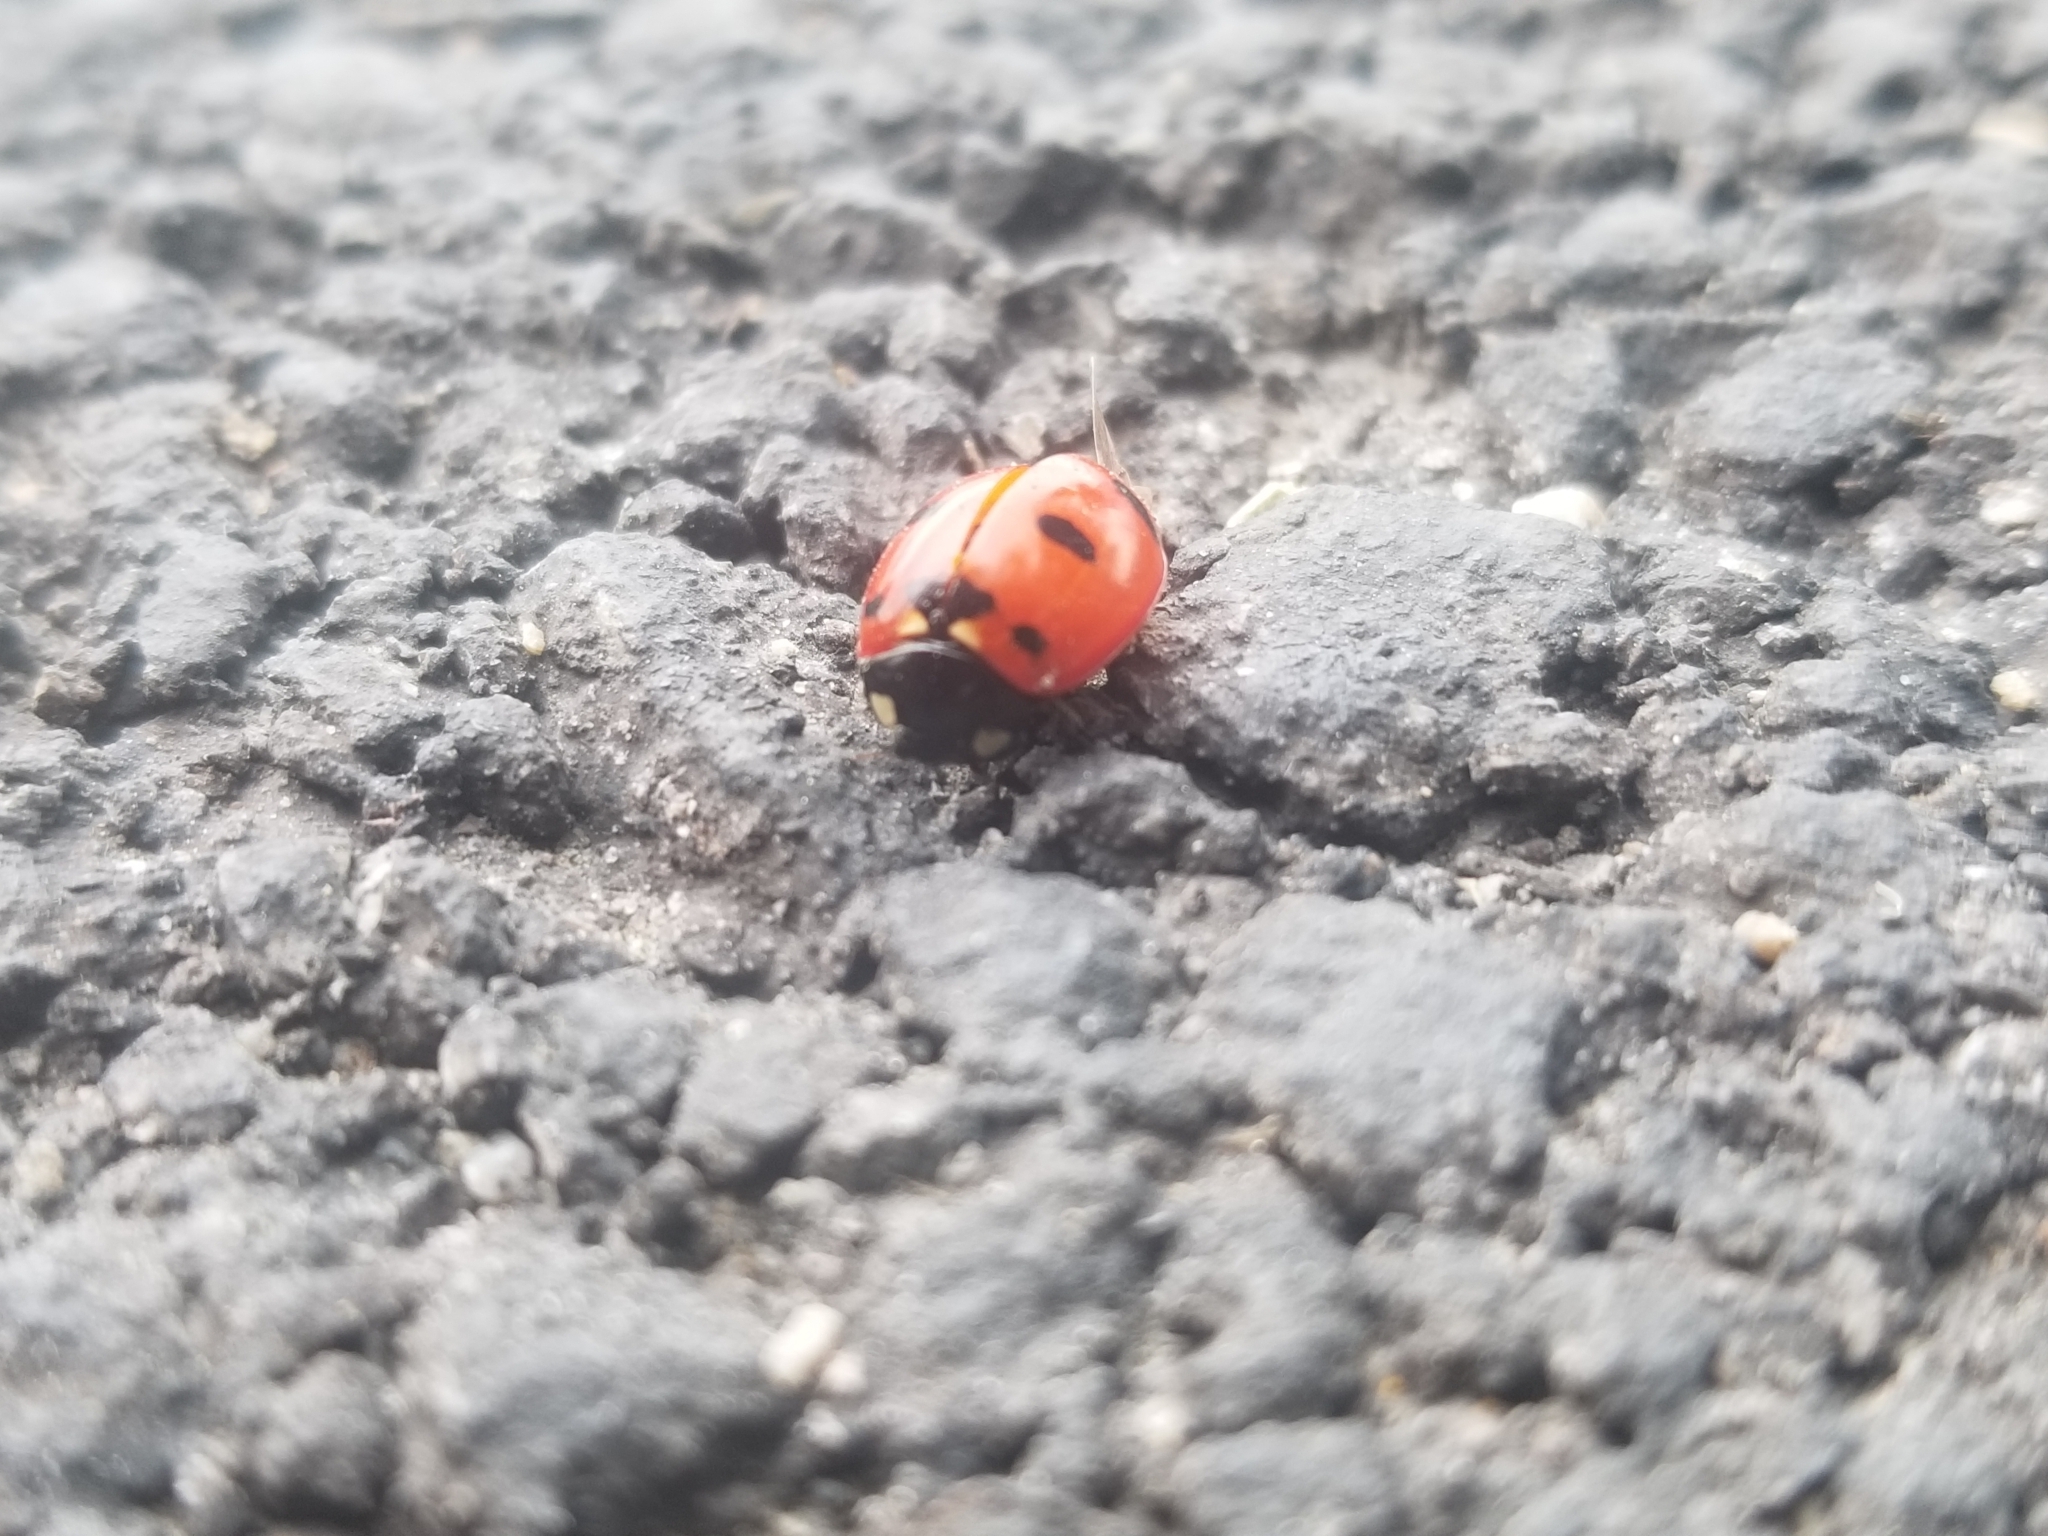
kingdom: Animalia
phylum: Arthropoda
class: Insecta
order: Coleoptera
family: Coccinellidae
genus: Coccinella
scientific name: Coccinella transversoguttata
